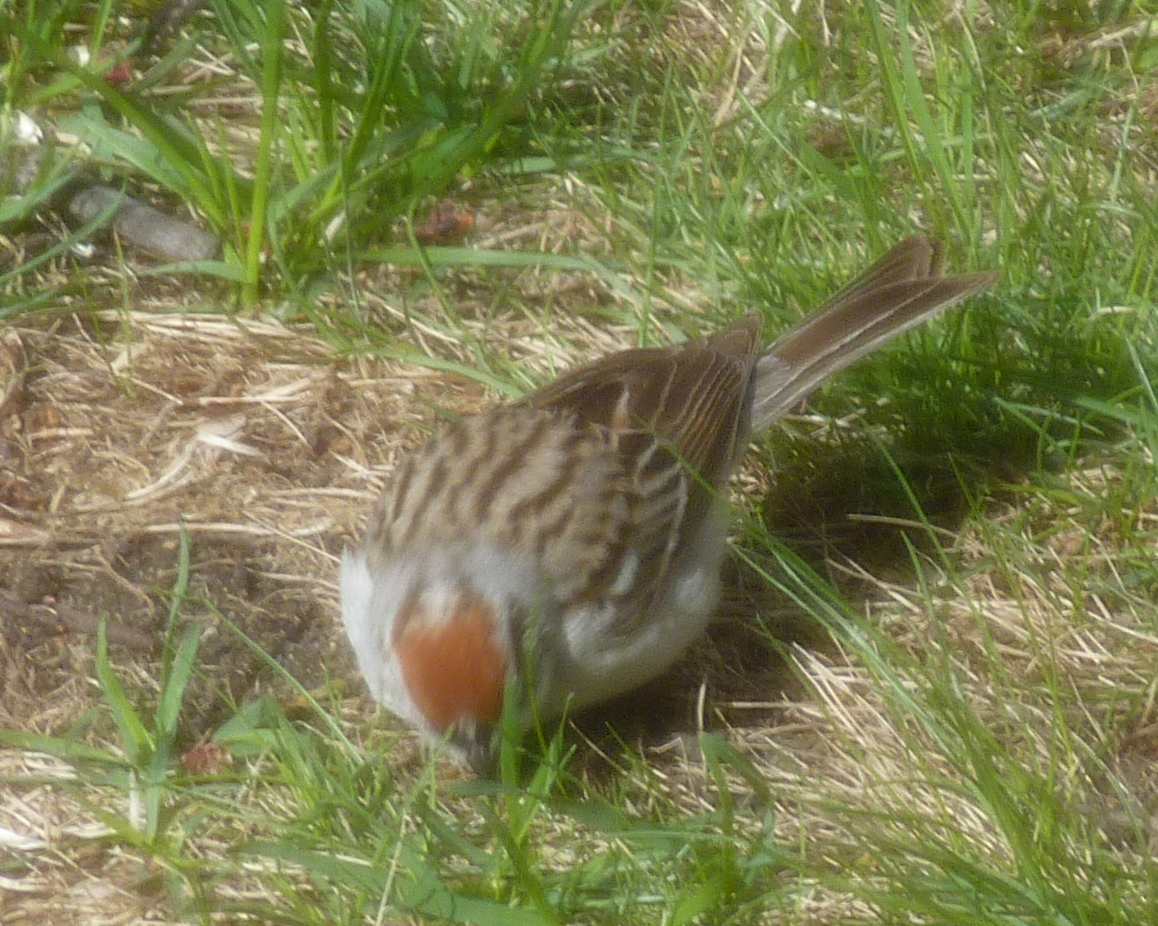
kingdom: Animalia
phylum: Chordata
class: Aves
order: Passeriformes
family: Passerellidae
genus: Spizella
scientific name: Spizella passerina
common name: Chipping sparrow
